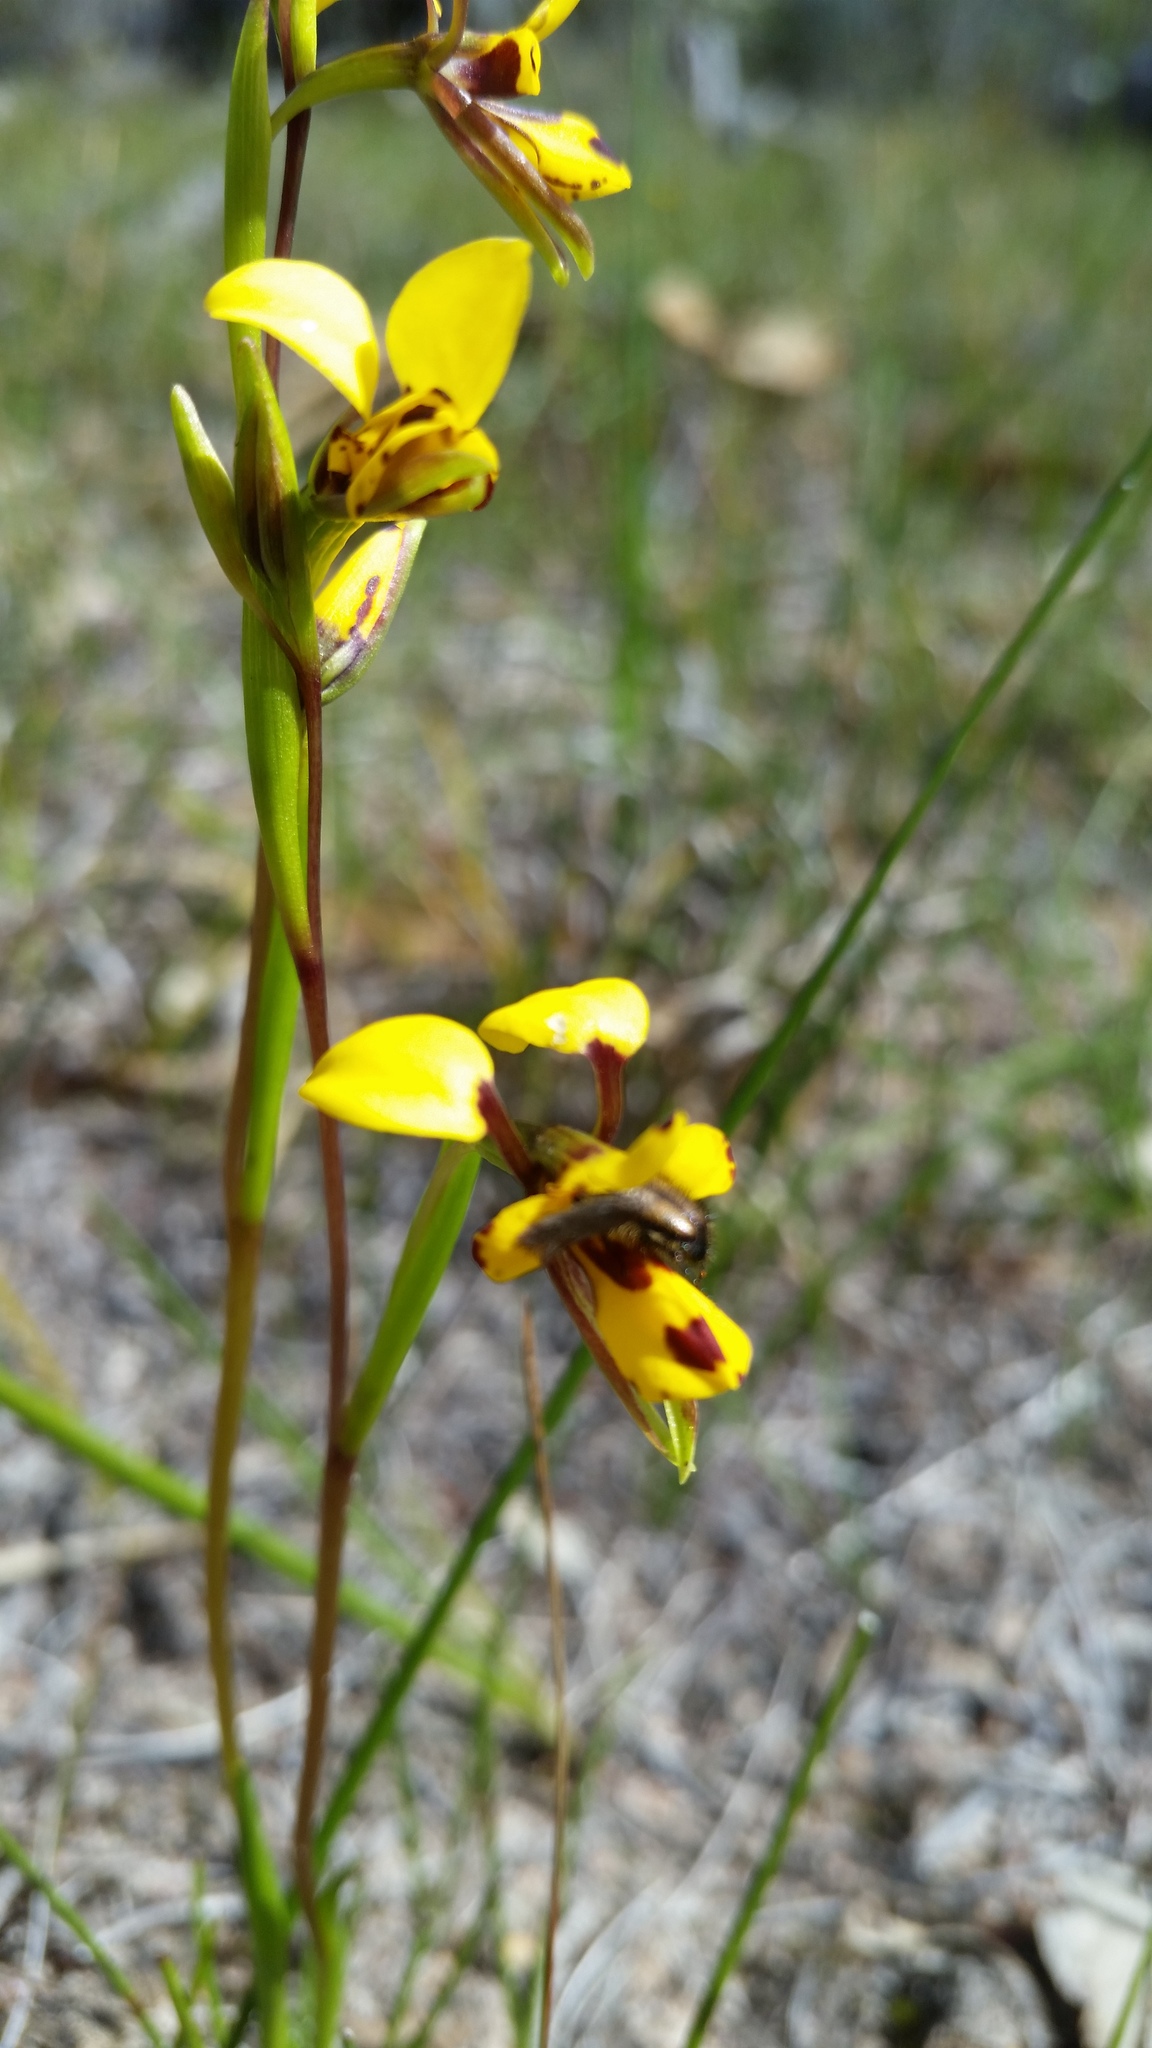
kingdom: Plantae
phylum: Tracheophyta
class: Liliopsida
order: Asparagales
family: Orchidaceae
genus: Diuris
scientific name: Diuris laxiflora
